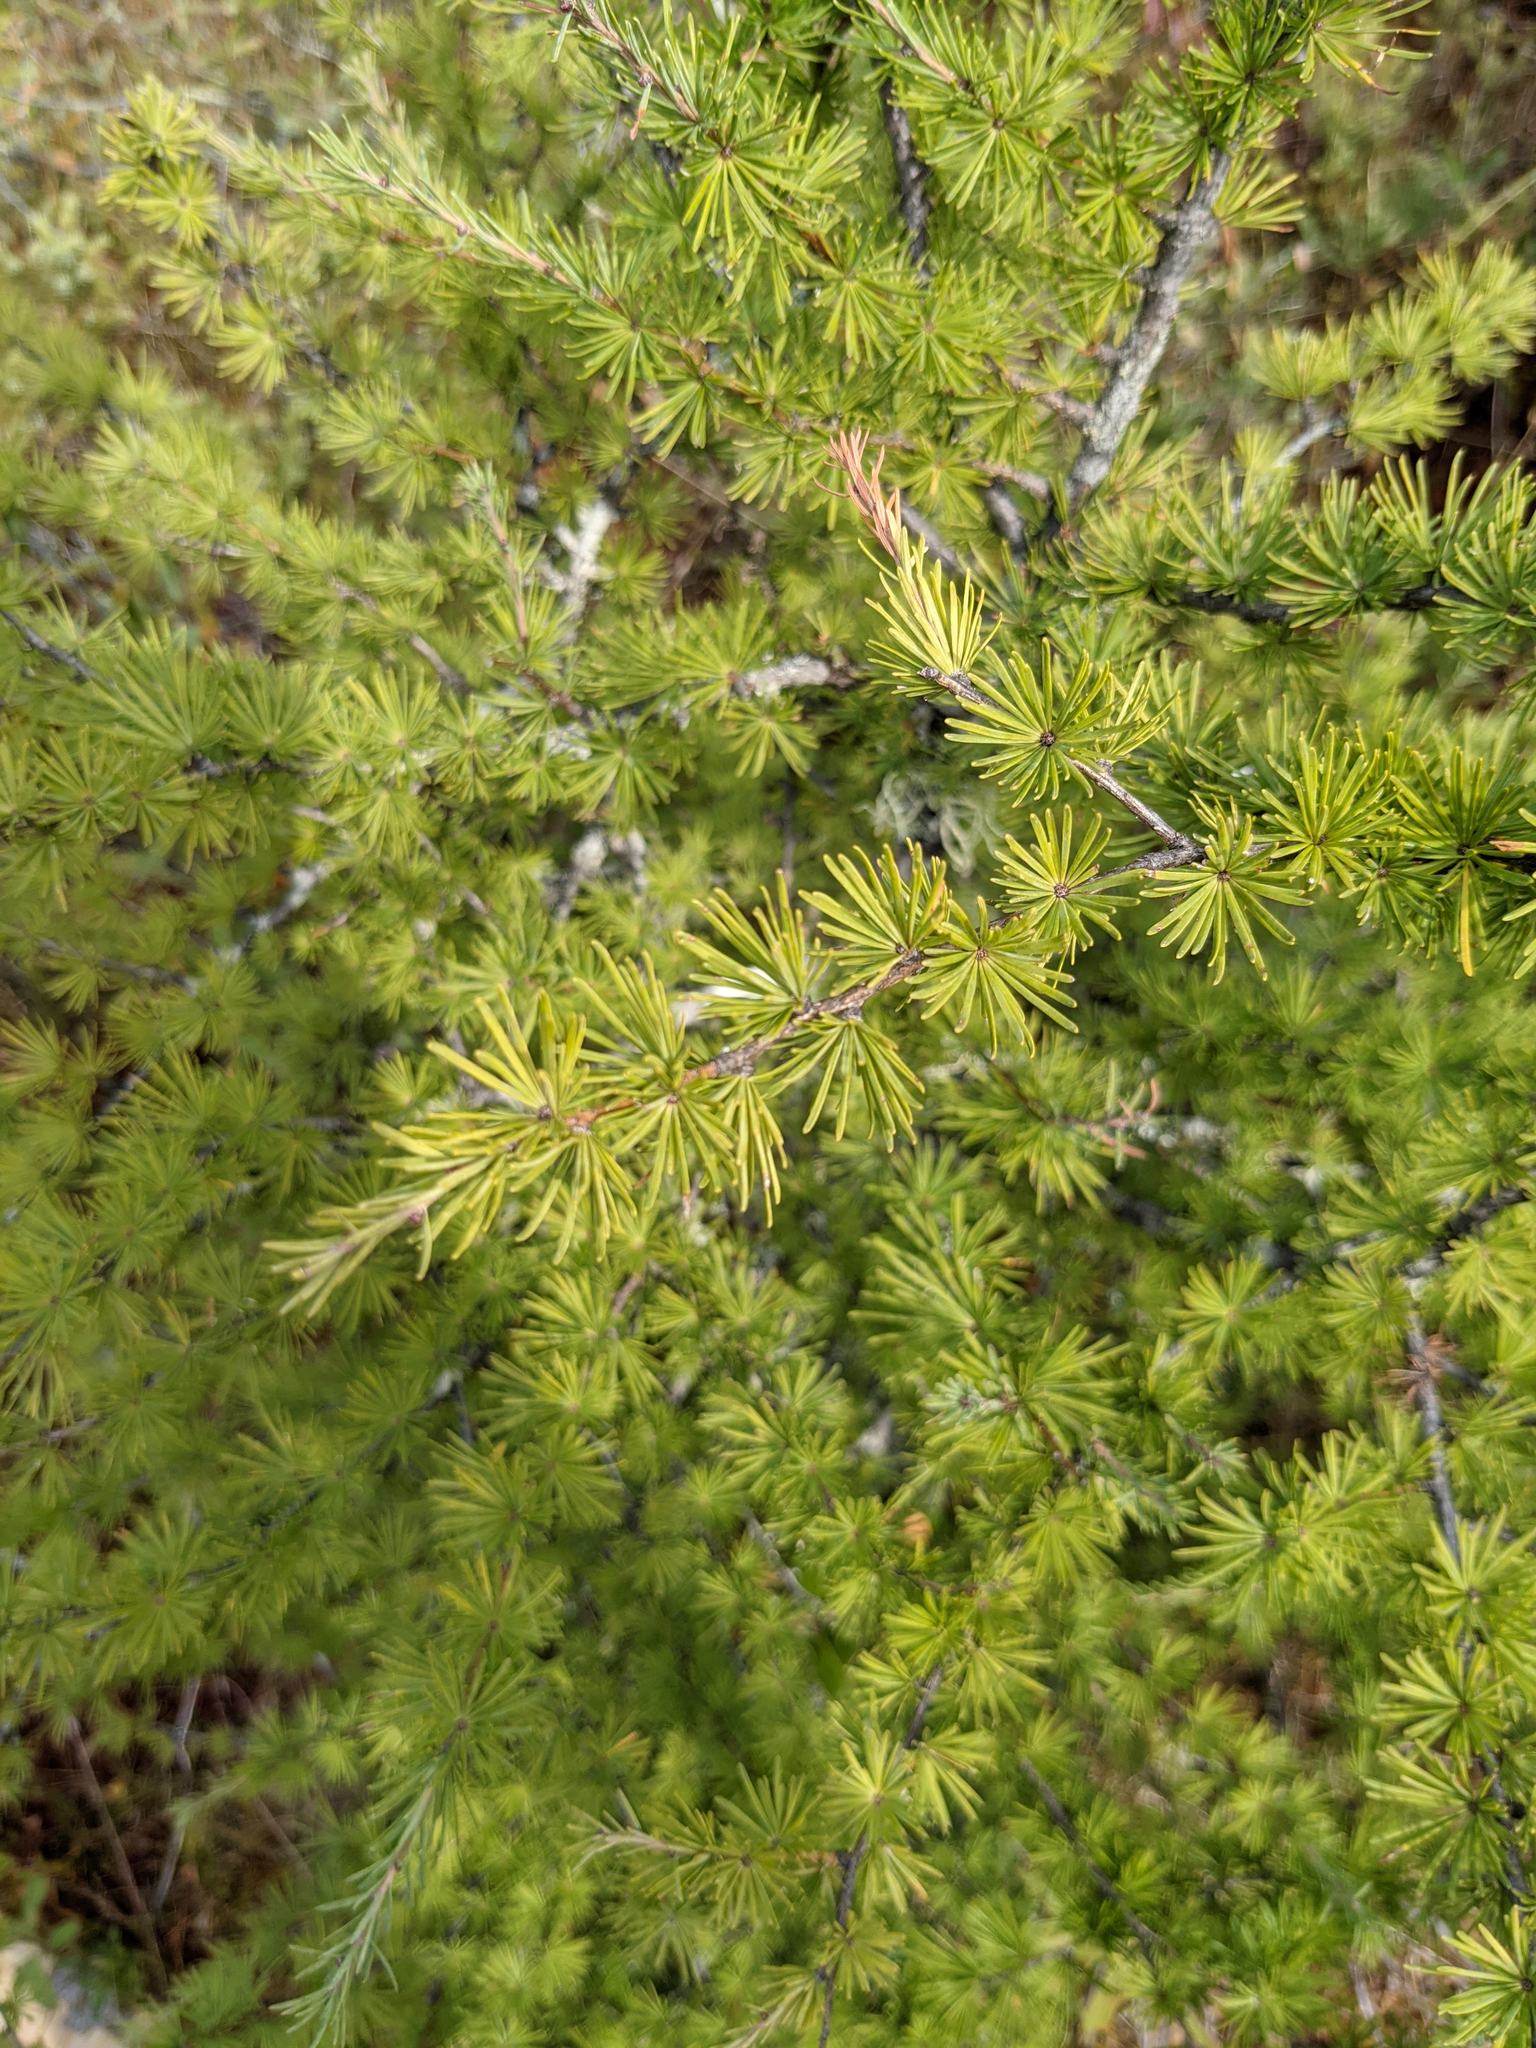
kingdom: Plantae
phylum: Tracheophyta
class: Pinopsida
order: Pinales
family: Pinaceae
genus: Larix
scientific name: Larix laricina
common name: American larch
